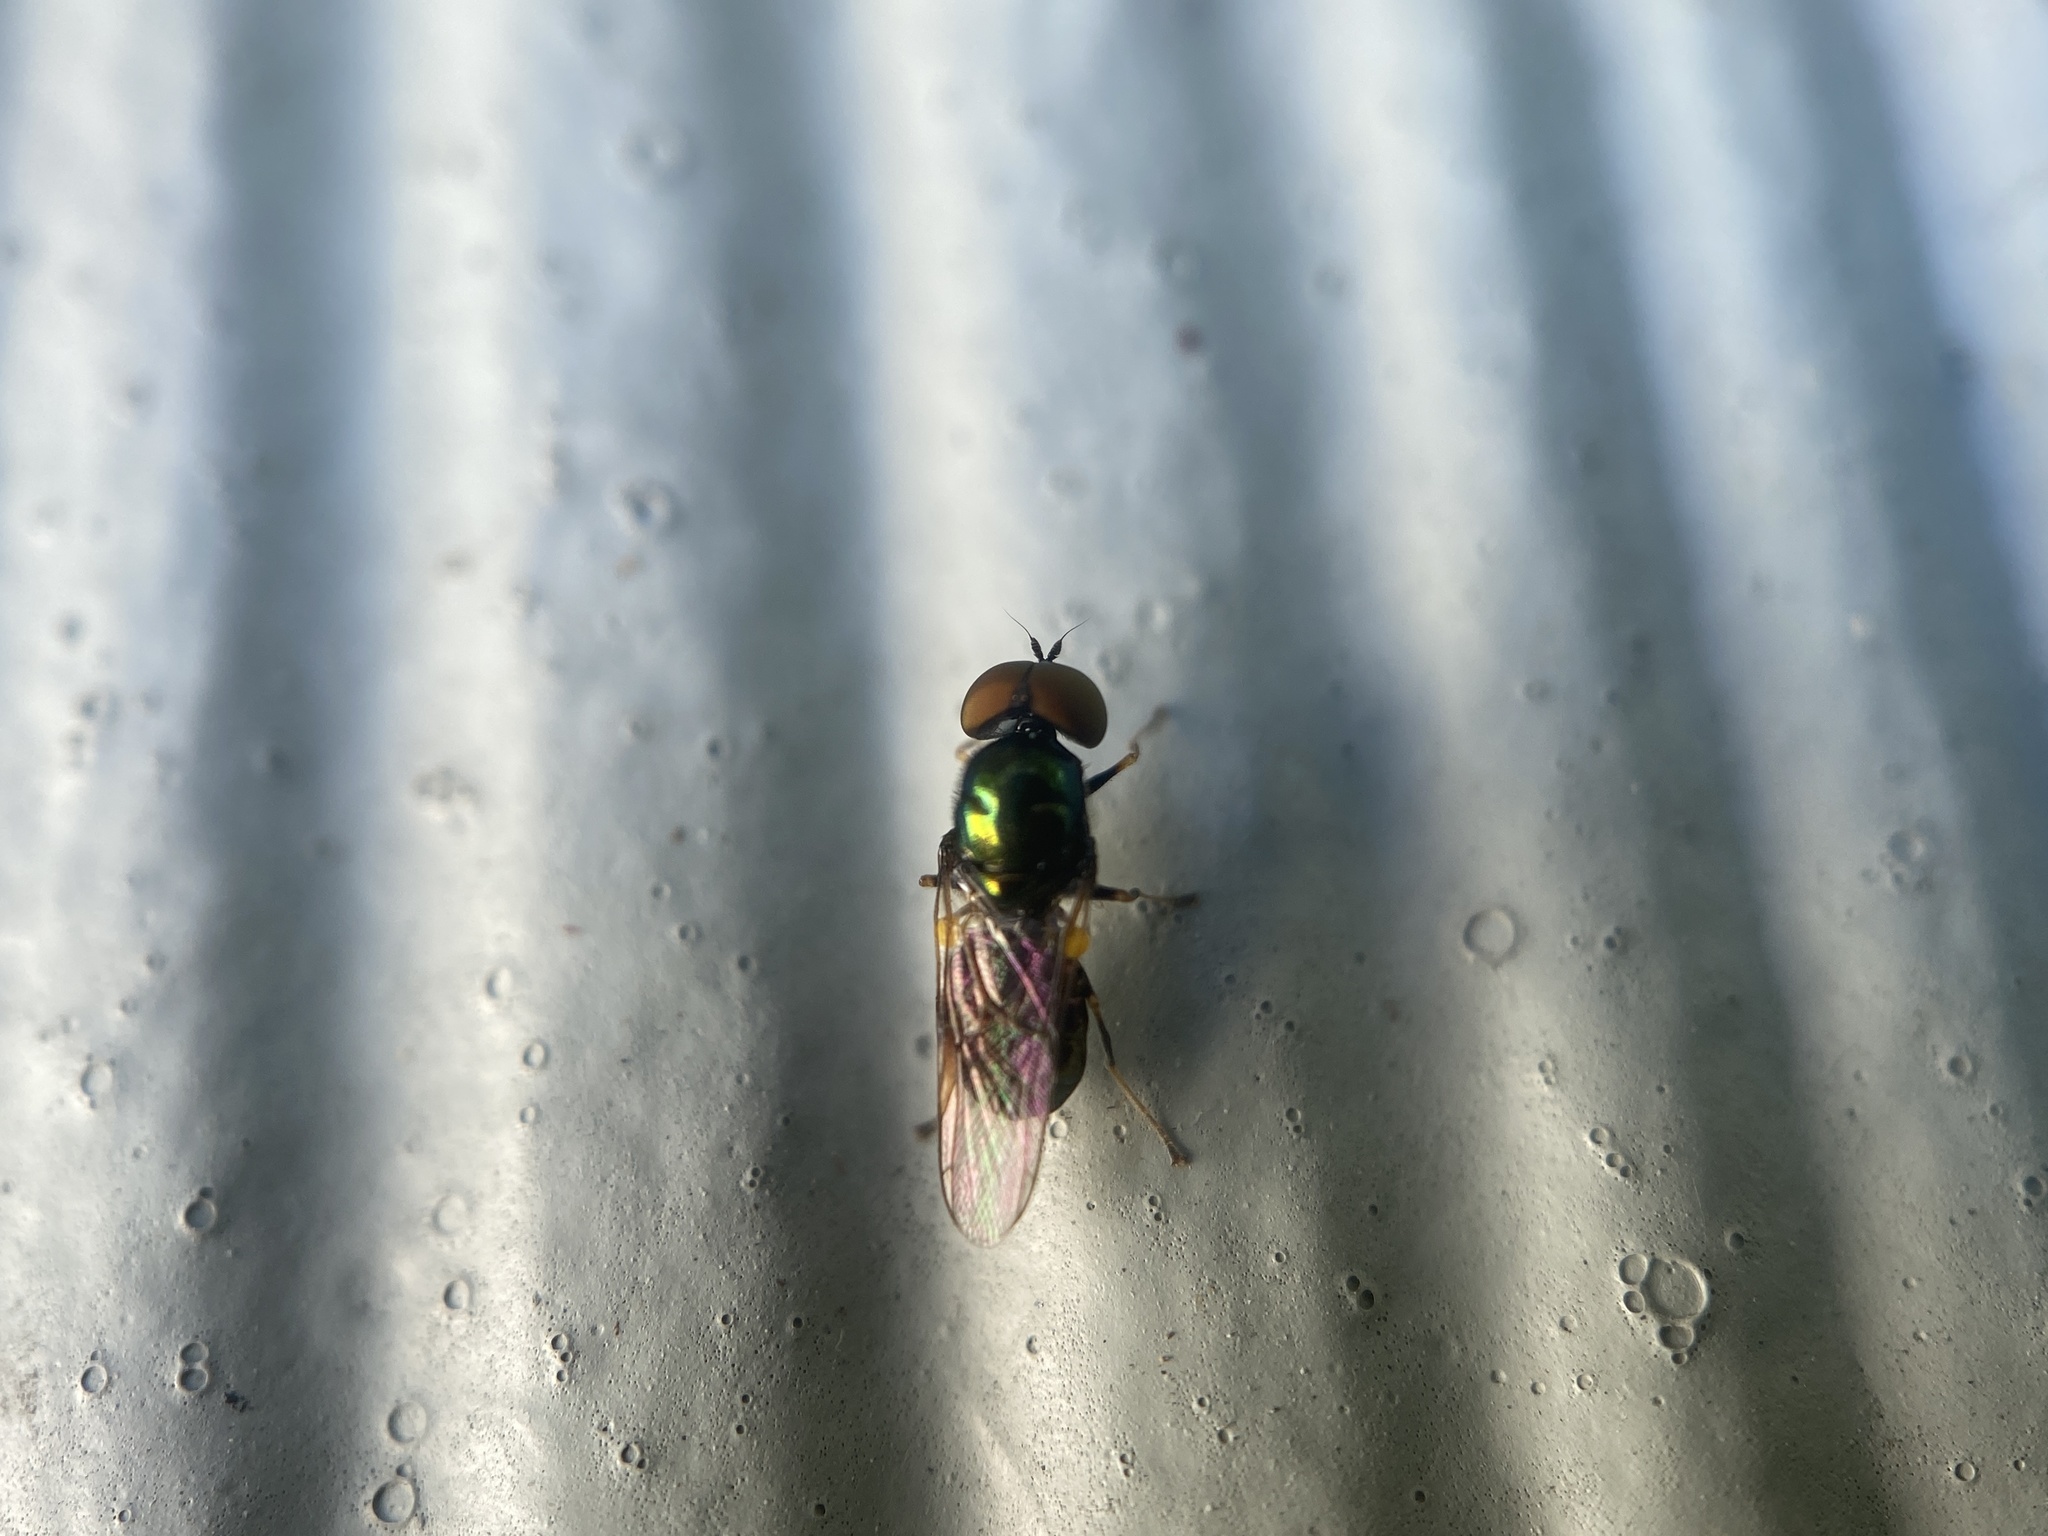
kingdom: Animalia
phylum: Arthropoda
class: Insecta
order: Diptera
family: Stratiomyidae
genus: Microchrysa
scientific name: Microchrysa polita
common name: Black-horned gem
